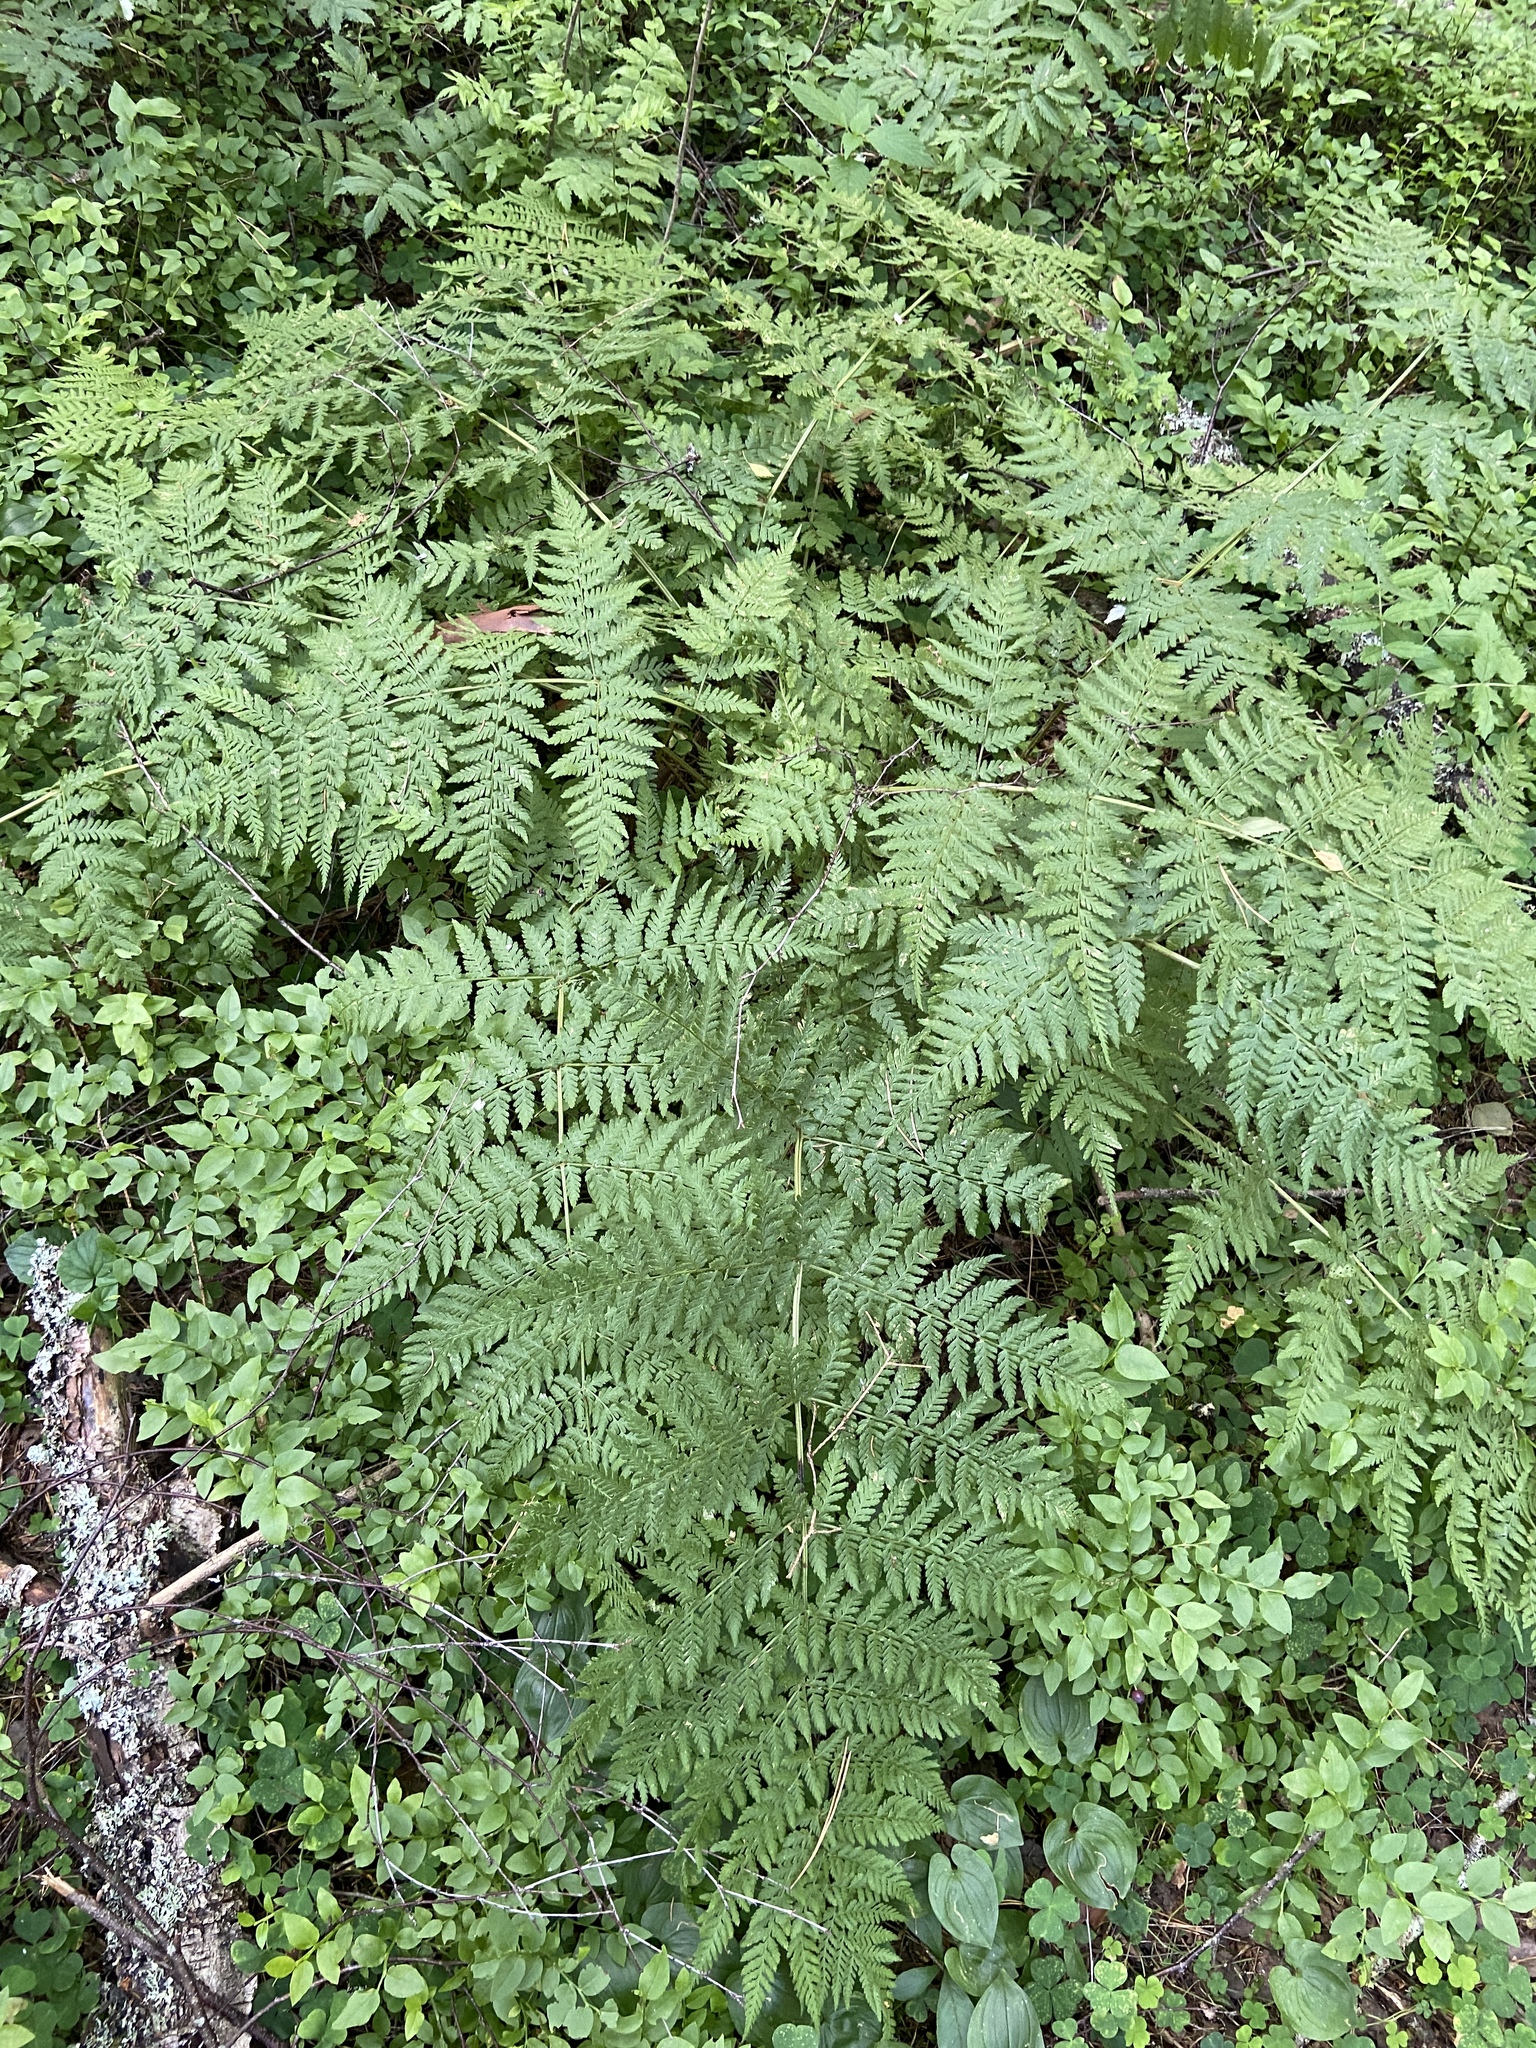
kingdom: Plantae
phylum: Tracheophyta
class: Polypodiopsida
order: Polypodiales
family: Dryopteridaceae
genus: Dryopteris
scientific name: Dryopteris expansa
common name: Northern buckler fern
